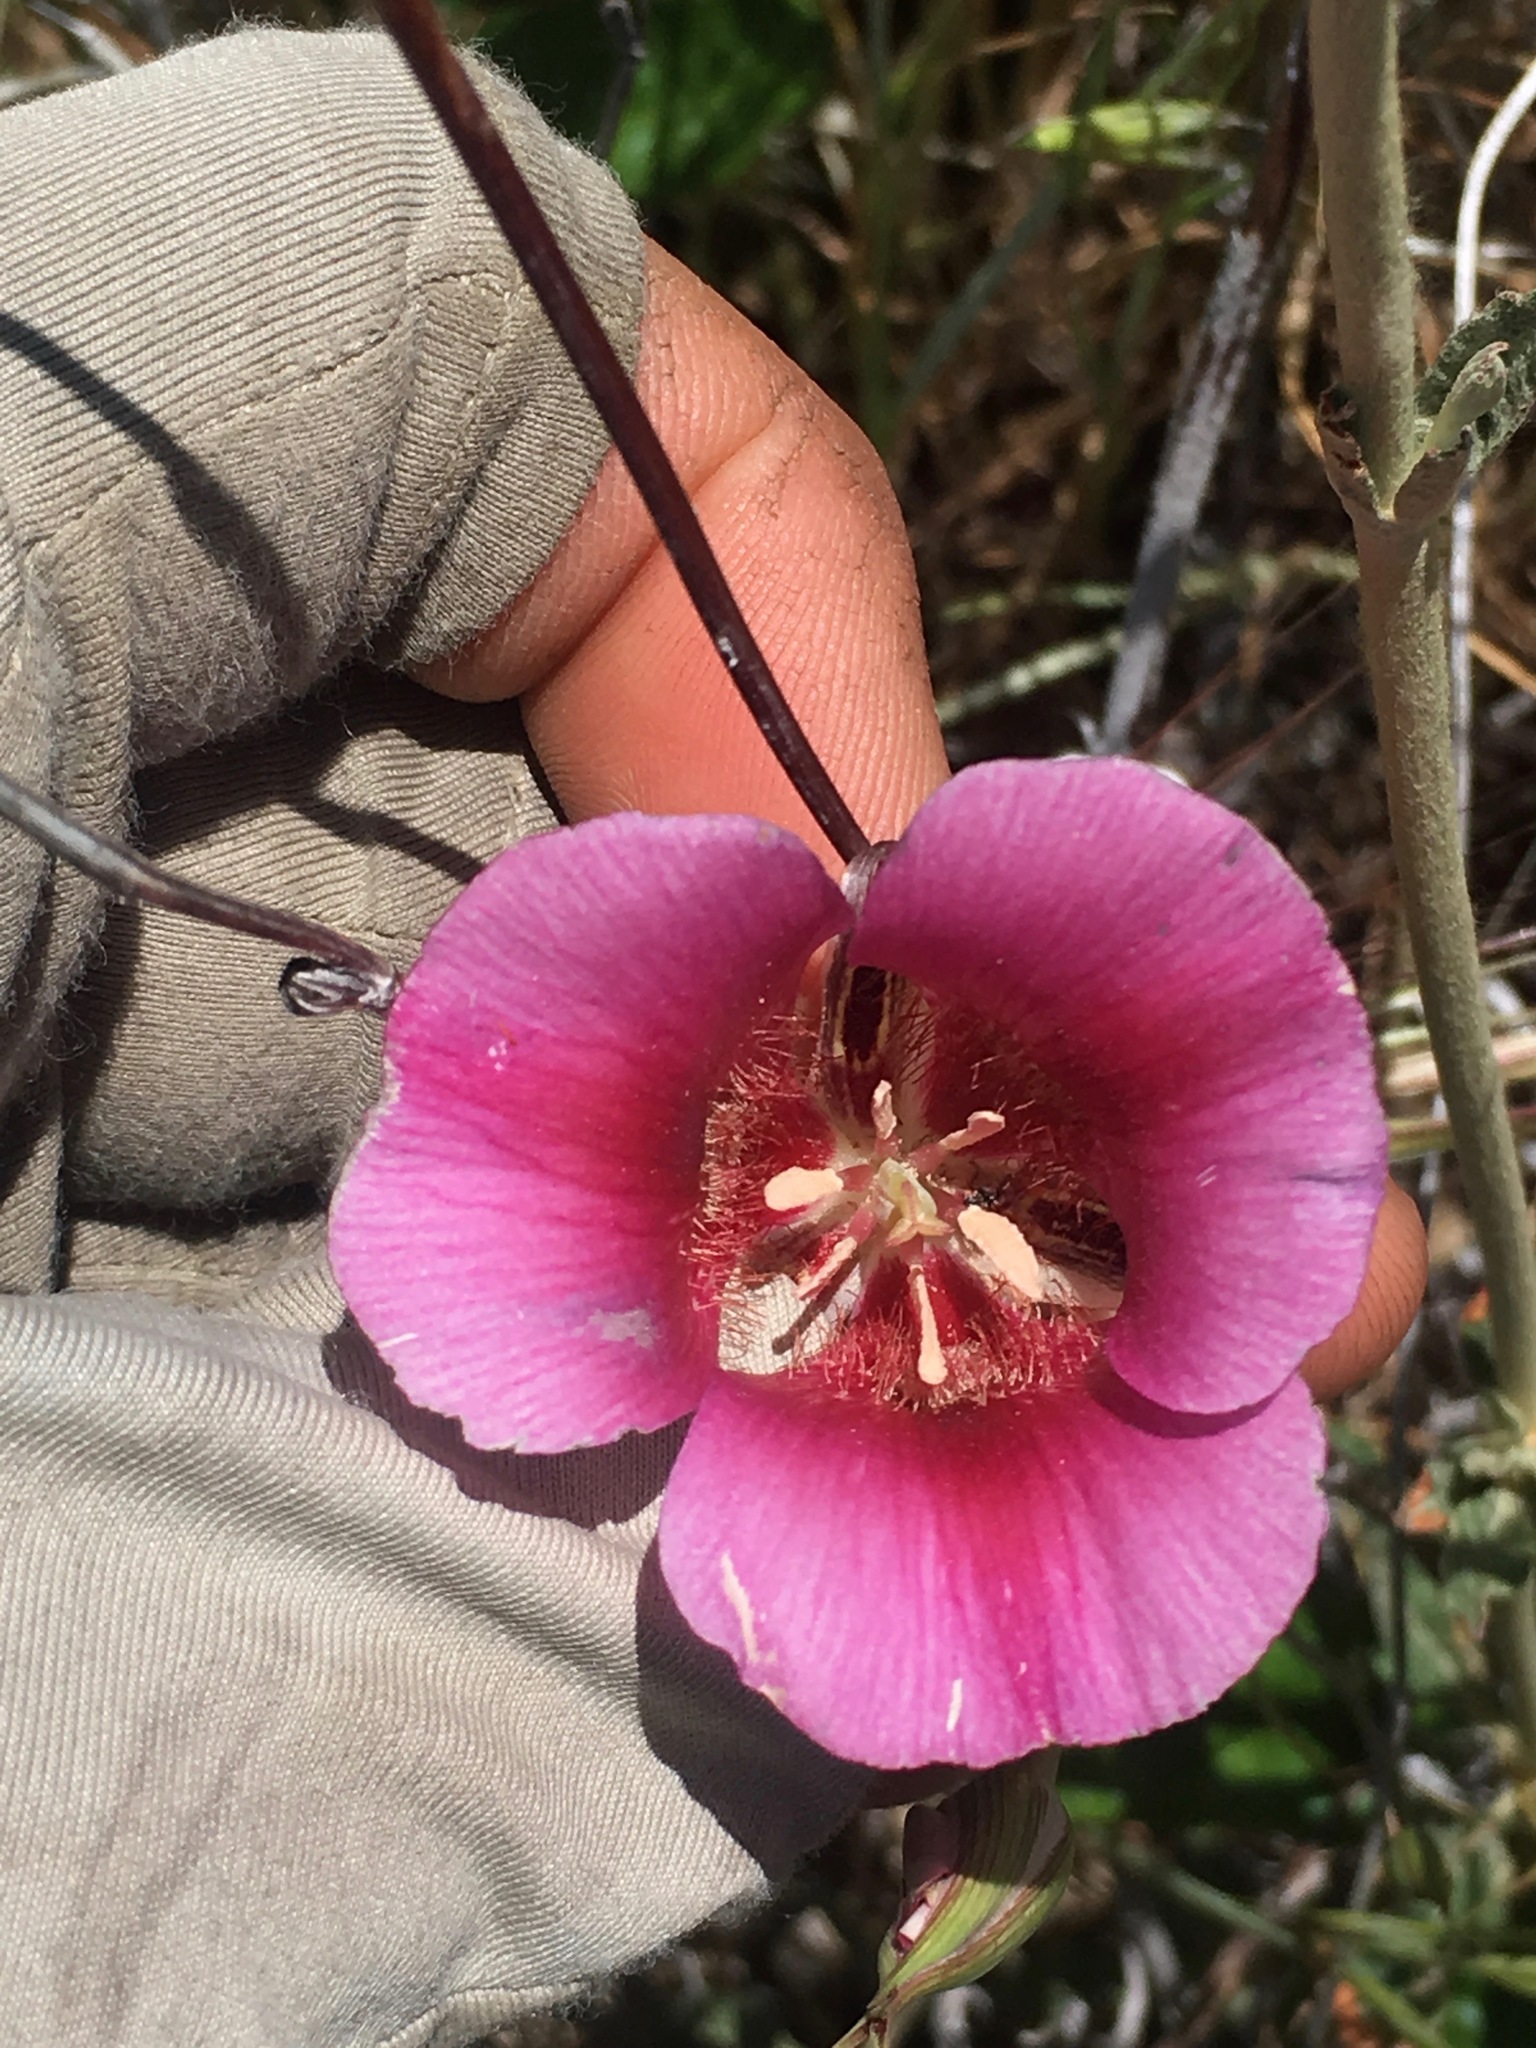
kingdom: Plantae
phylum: Tracheophyta
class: Liliopsida
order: Liliales
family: Liliaceae
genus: Calochortus
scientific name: Calochortus venustus
